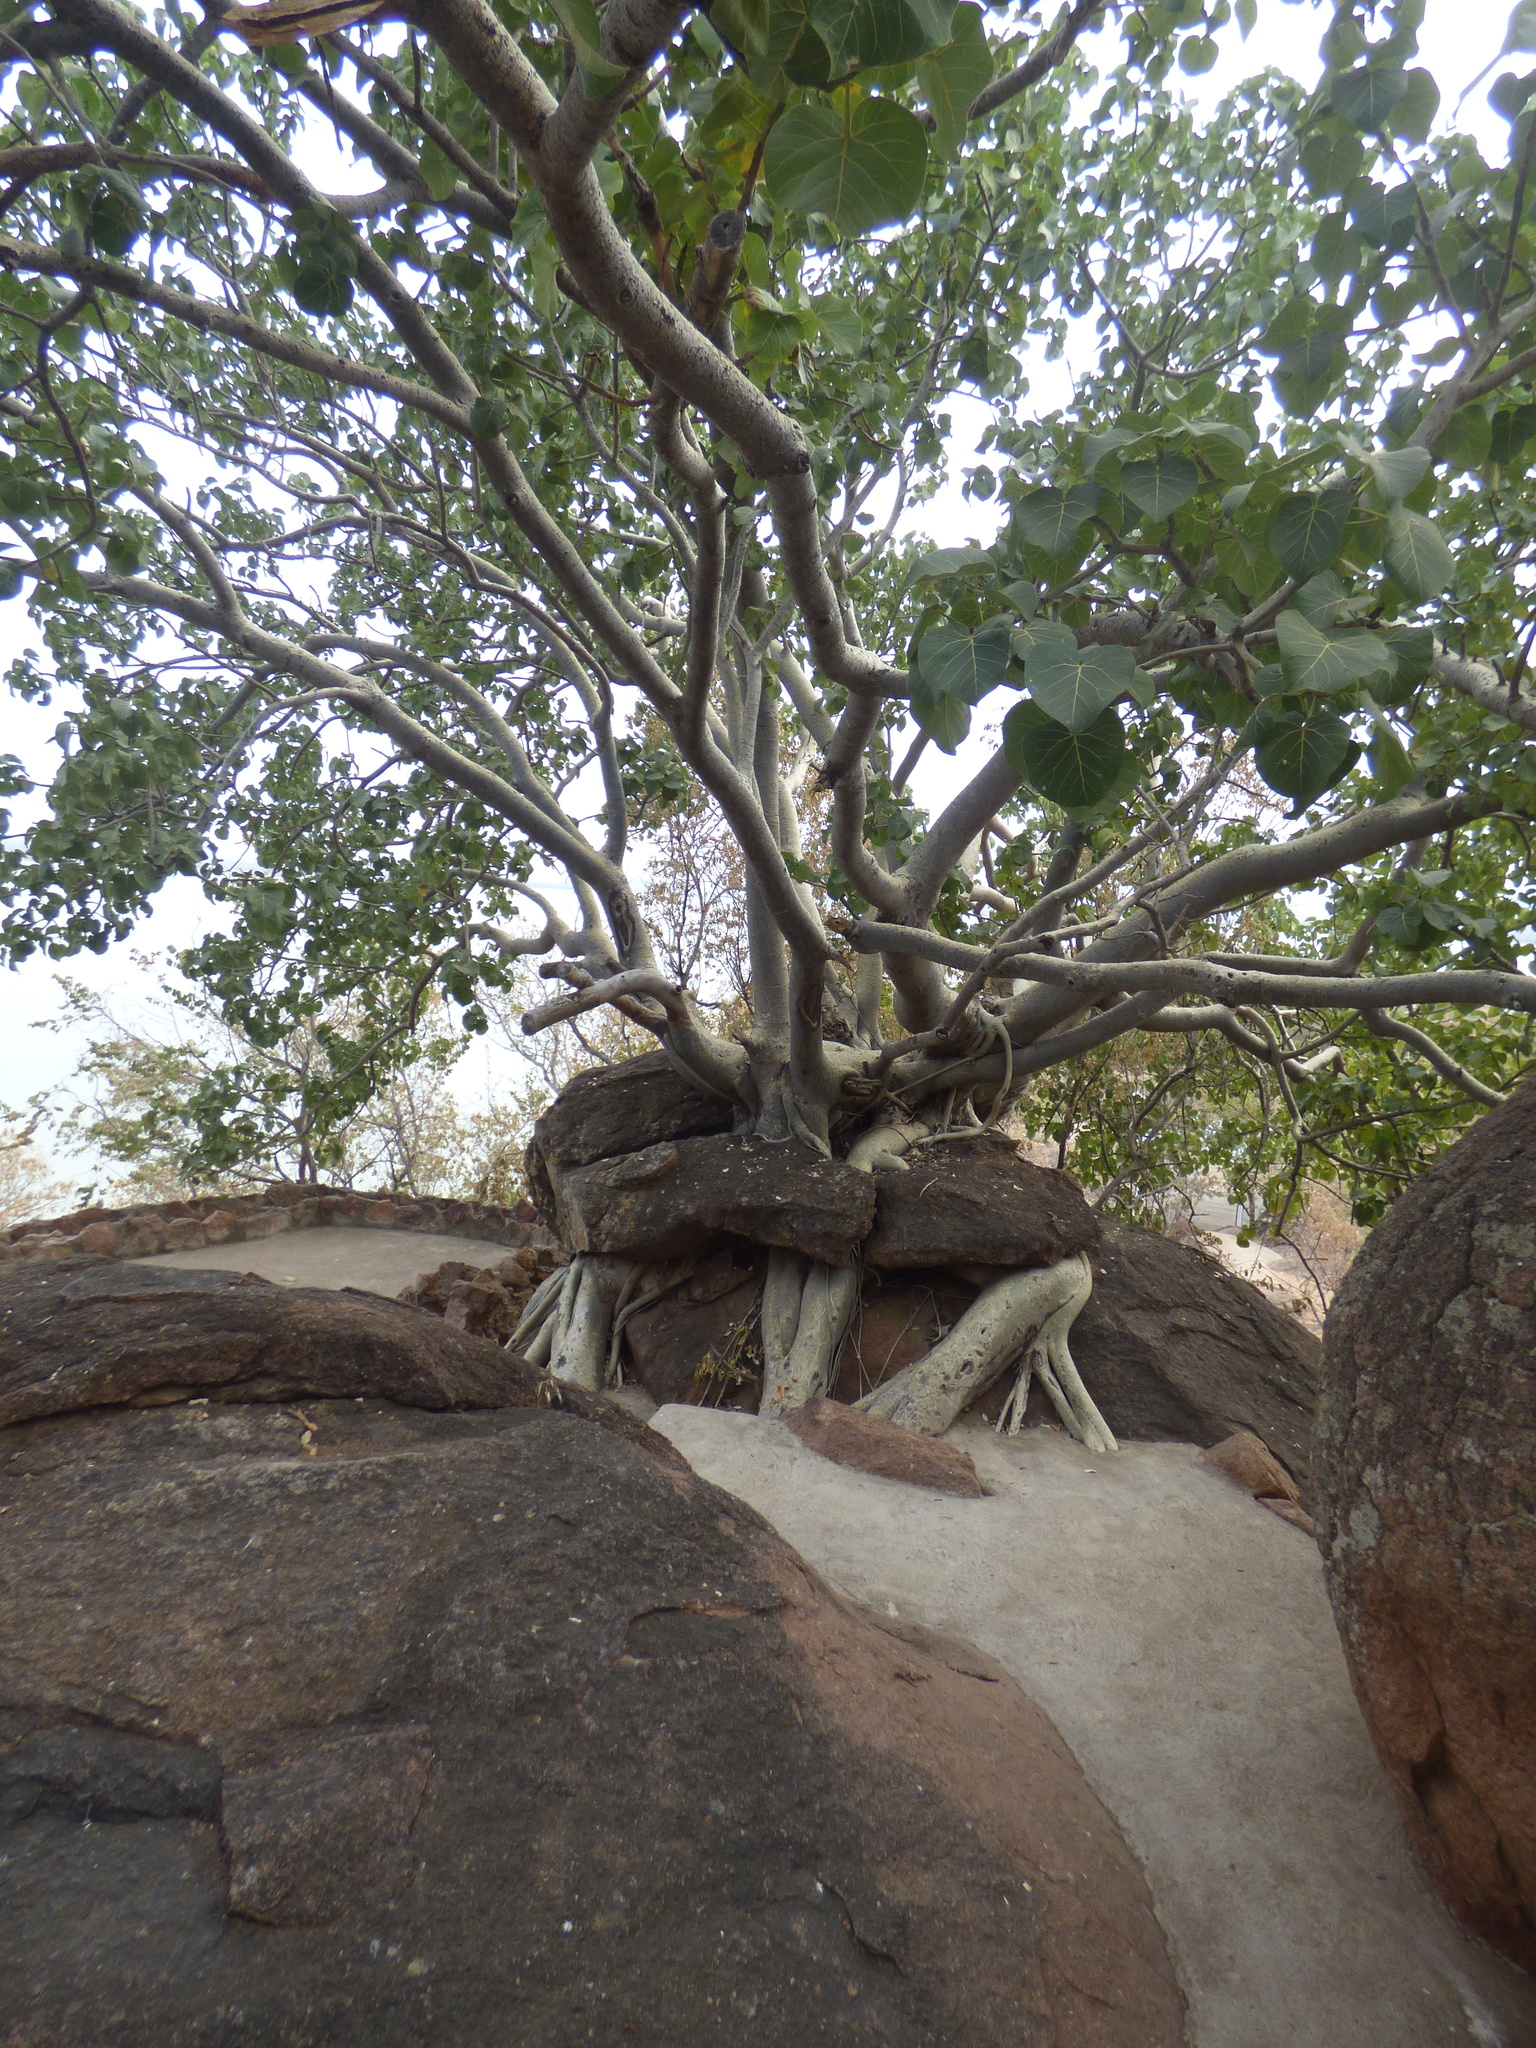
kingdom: Plantae
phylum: Tracheophyta
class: Magnoliopsida
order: Rosales
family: Moraceae
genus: Ficus
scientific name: Ficus abutilifolia
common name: Large-leaved rock fig
